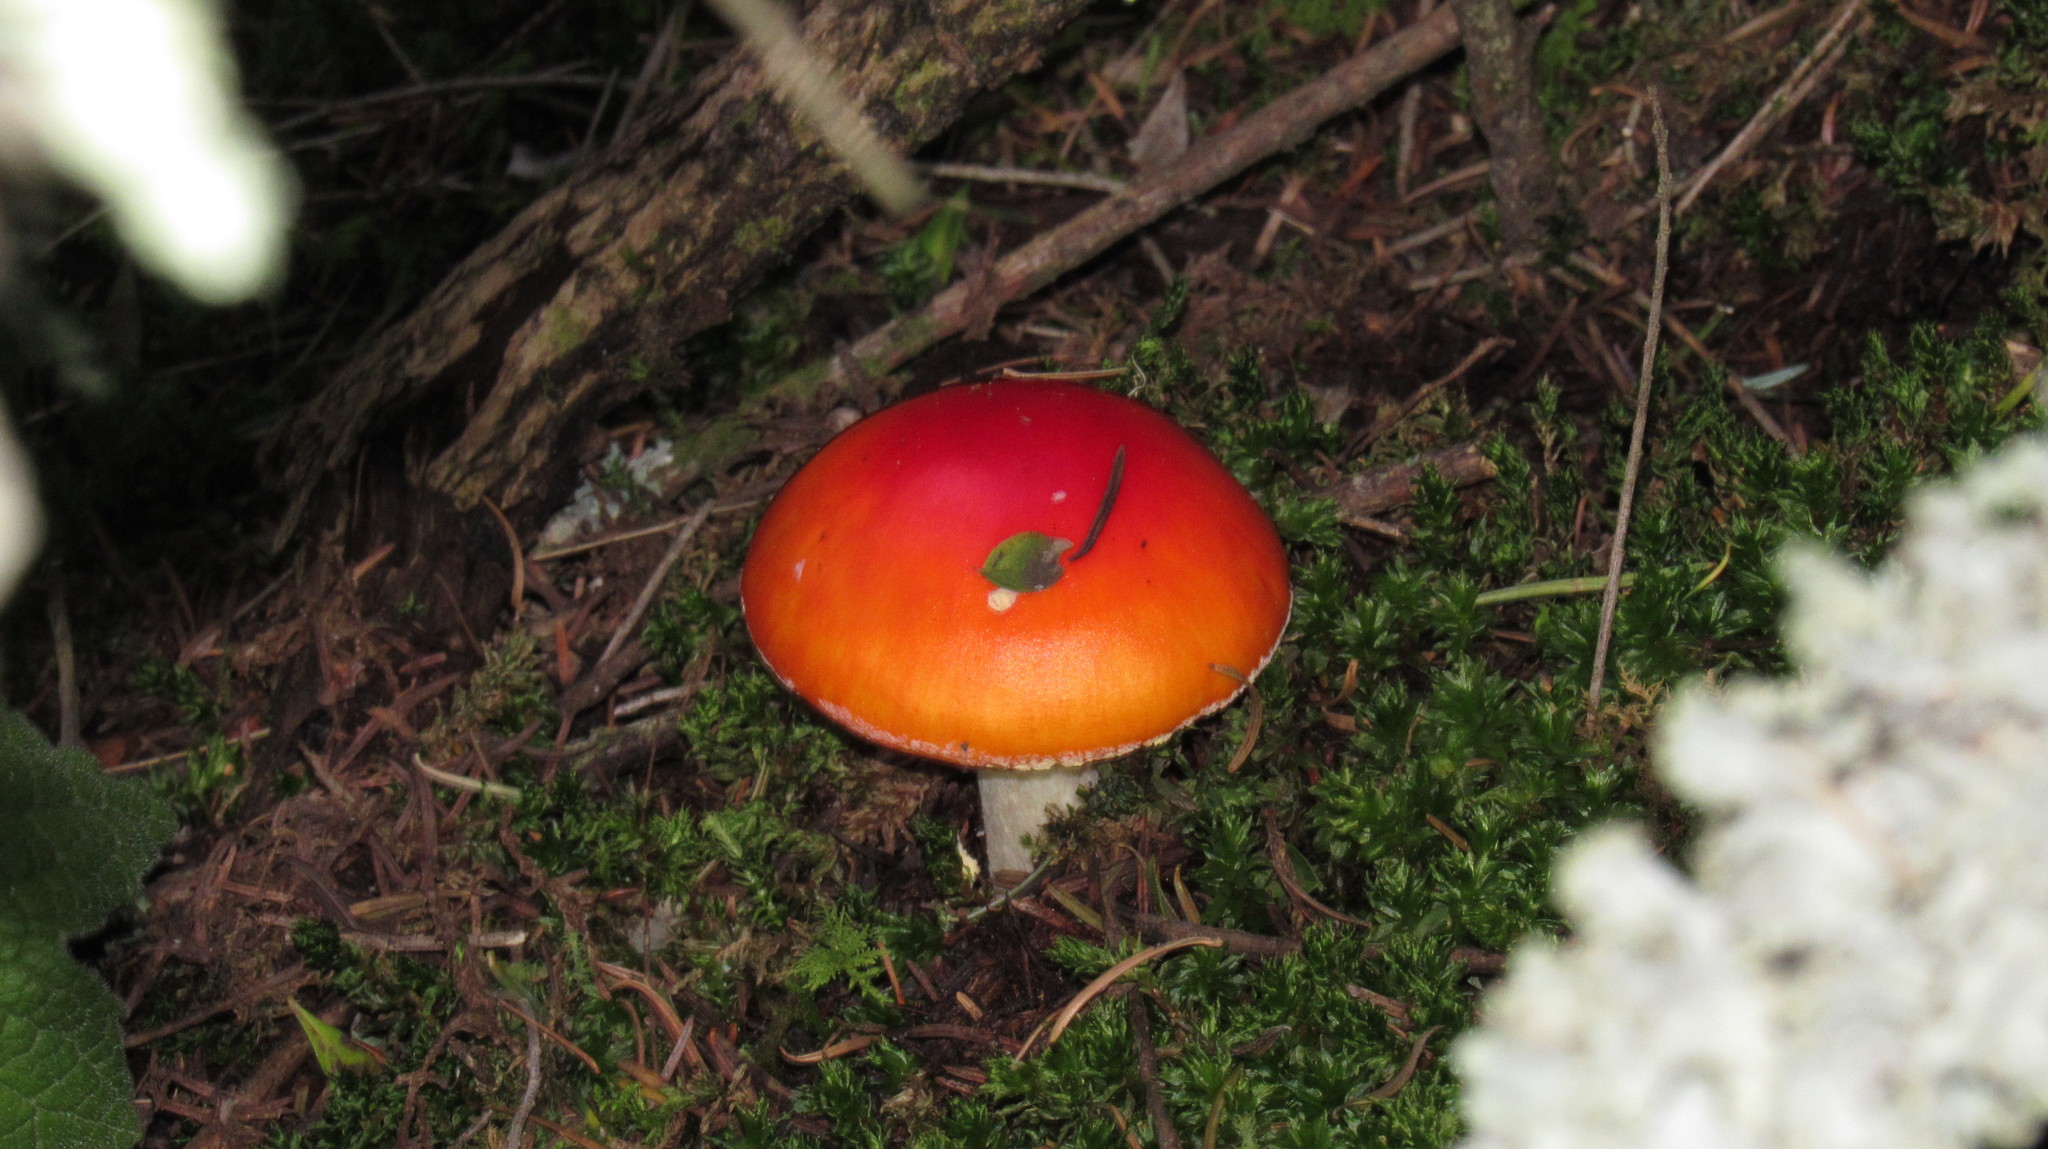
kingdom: Fungi
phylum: Basidiomycota
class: Agaricomycetes
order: Agaricales
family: Amanitaceae
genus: Amanita
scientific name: Amanita muscaria
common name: Fly agaric
